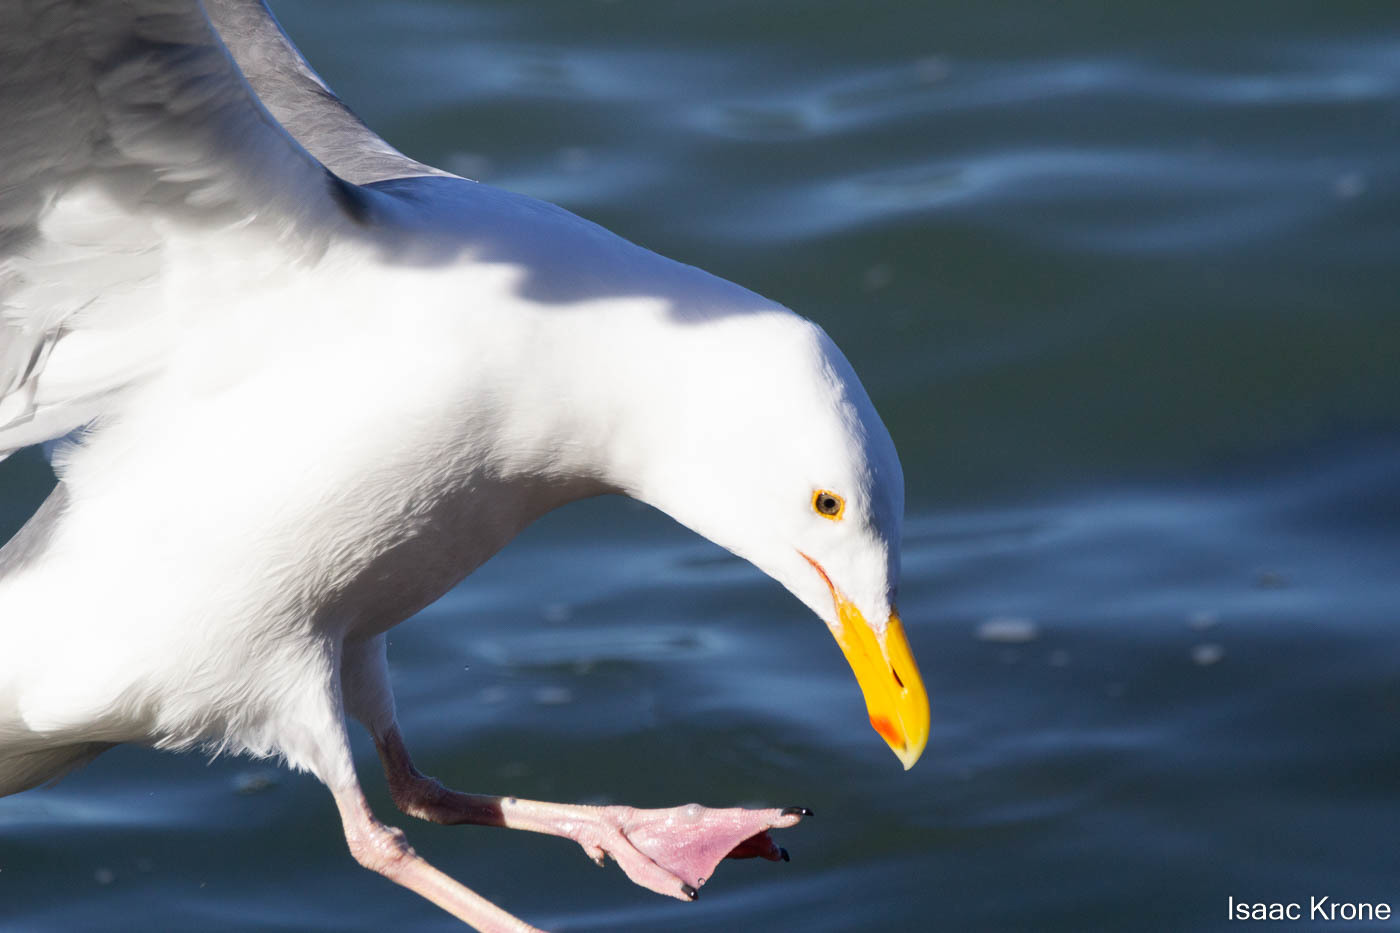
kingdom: Animalia
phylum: Chordata
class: Aves
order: Charadriiformes
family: Laridae
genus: Larus
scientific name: Larus occidentalis
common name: Western gull
